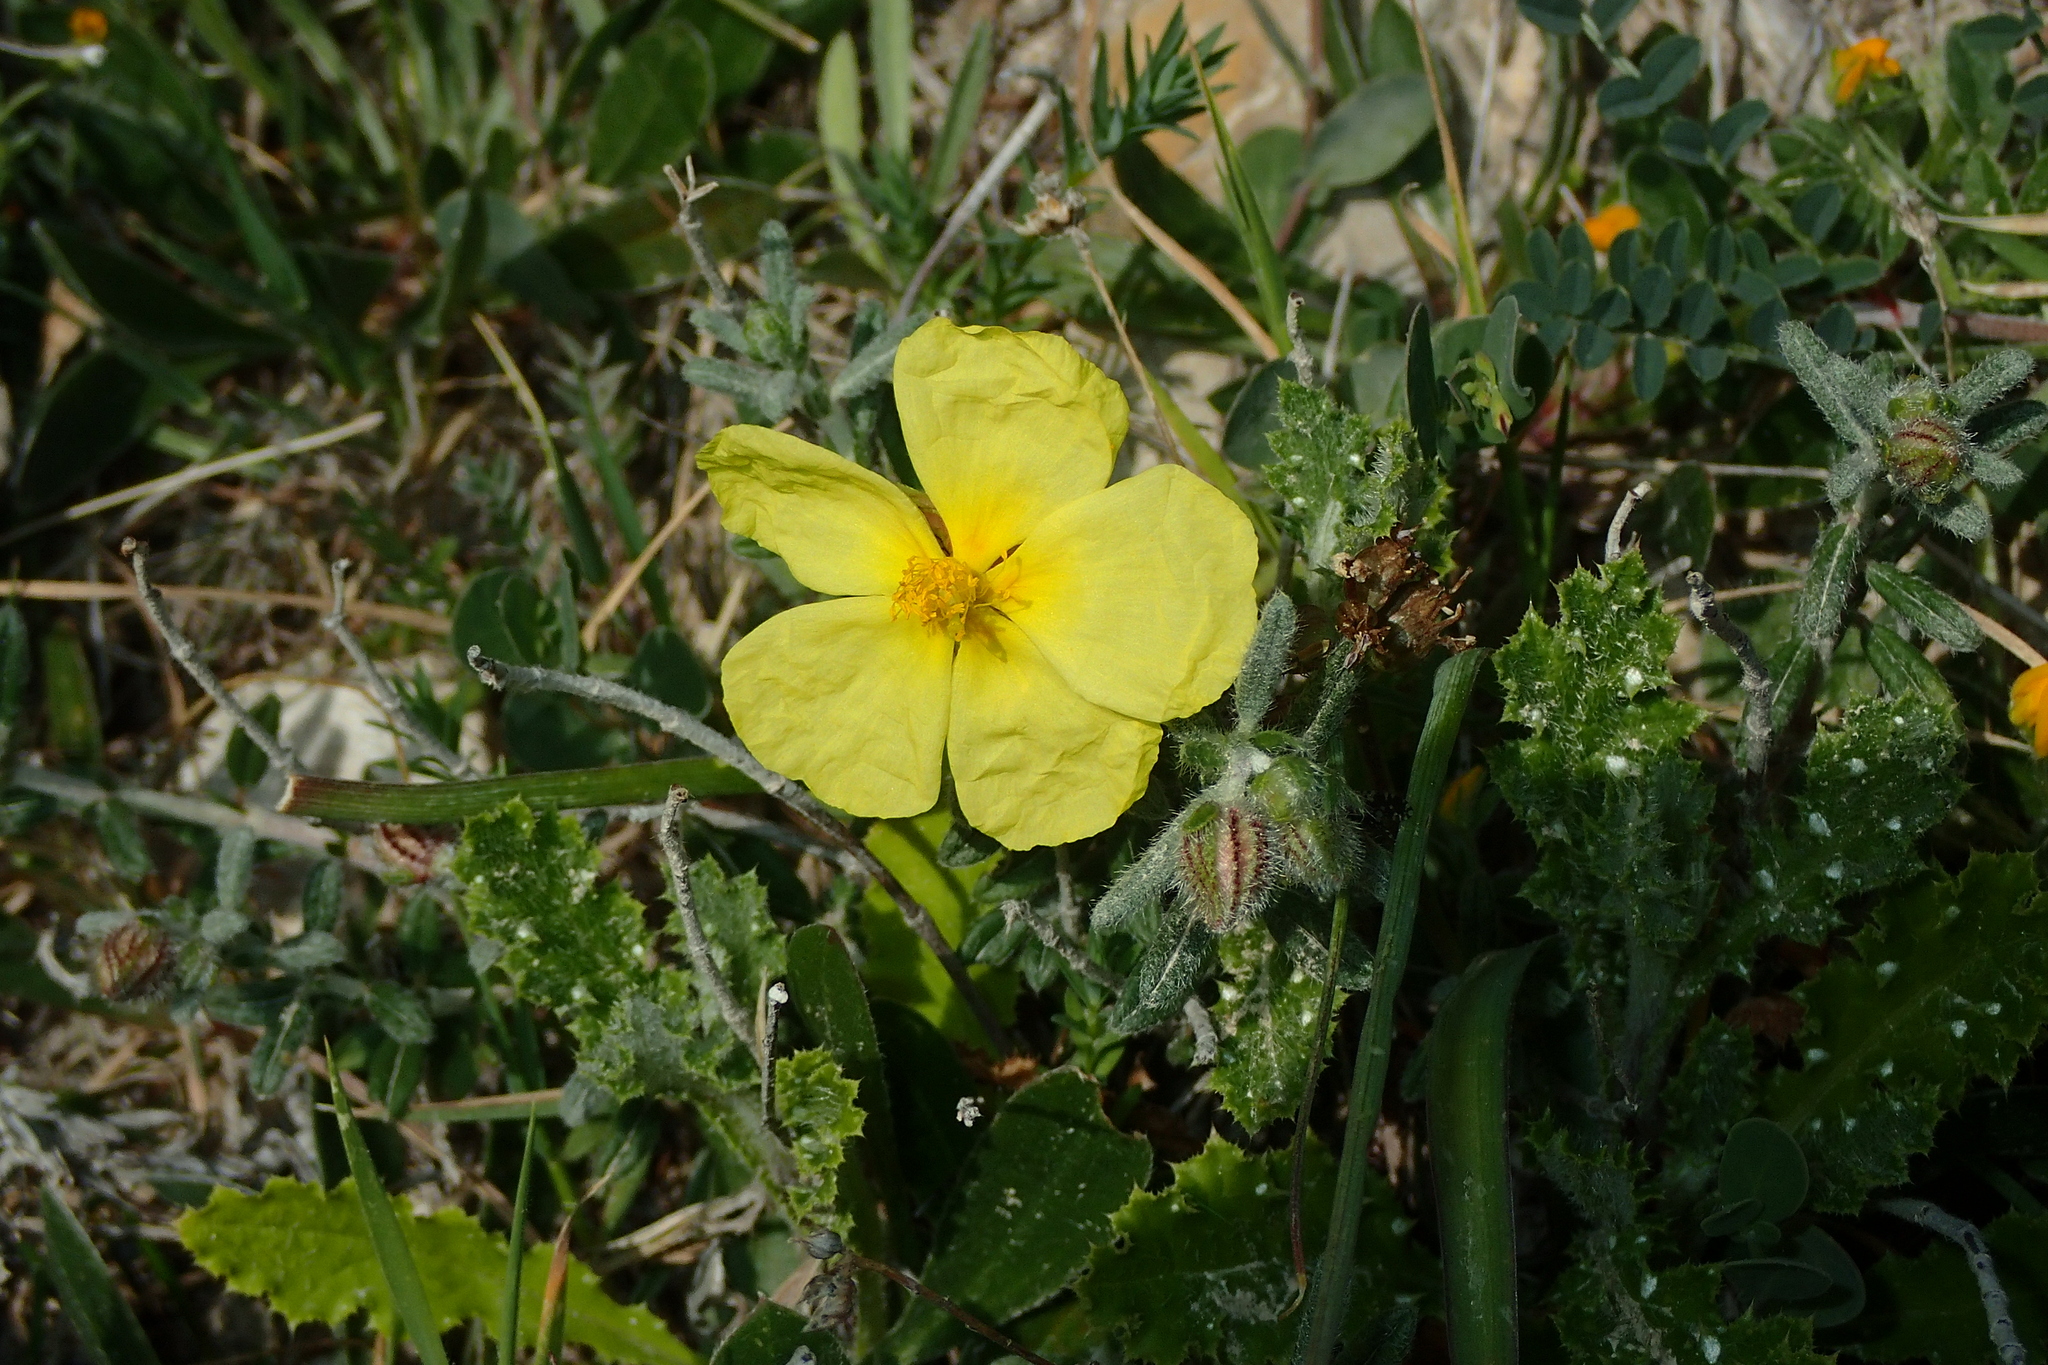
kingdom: Plantae
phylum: Tracheophyta
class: Magnoliopsida
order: Malvales
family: Cistaceae
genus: Helianthemum
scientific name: Helianthemum obtusifolium
